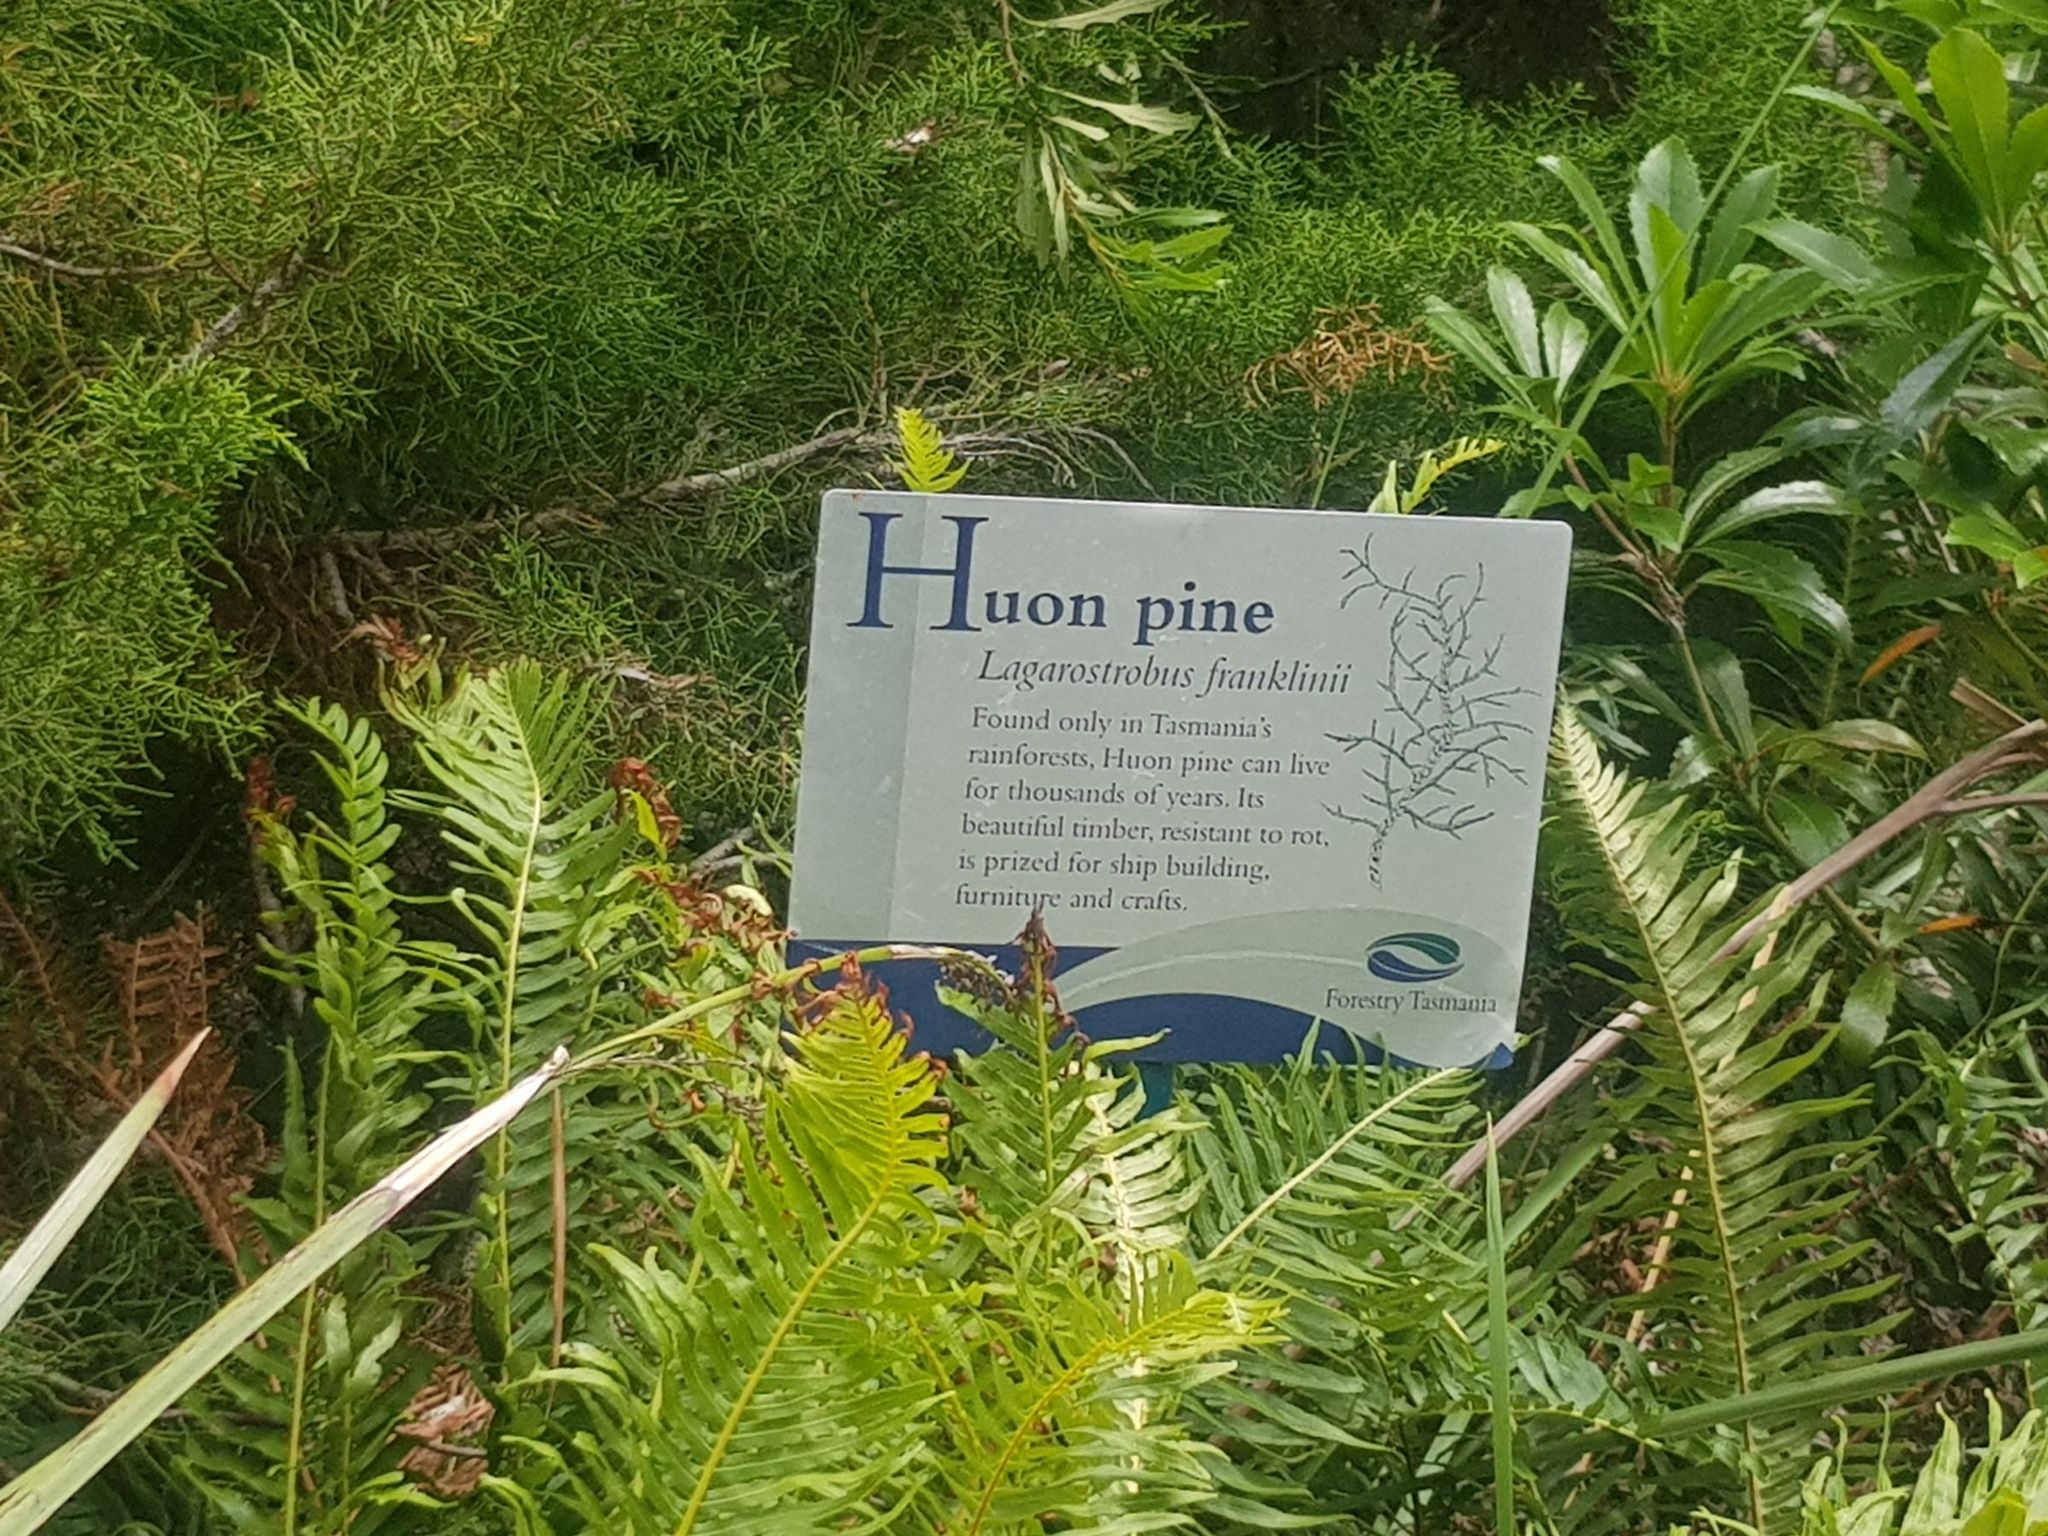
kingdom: Plantae
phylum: Tracheophyta
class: Pinopsida
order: Pinales
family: Podocarpaceae
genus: Lagarostrobos
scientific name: Lagarostrobos franklinii
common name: Huon pine
